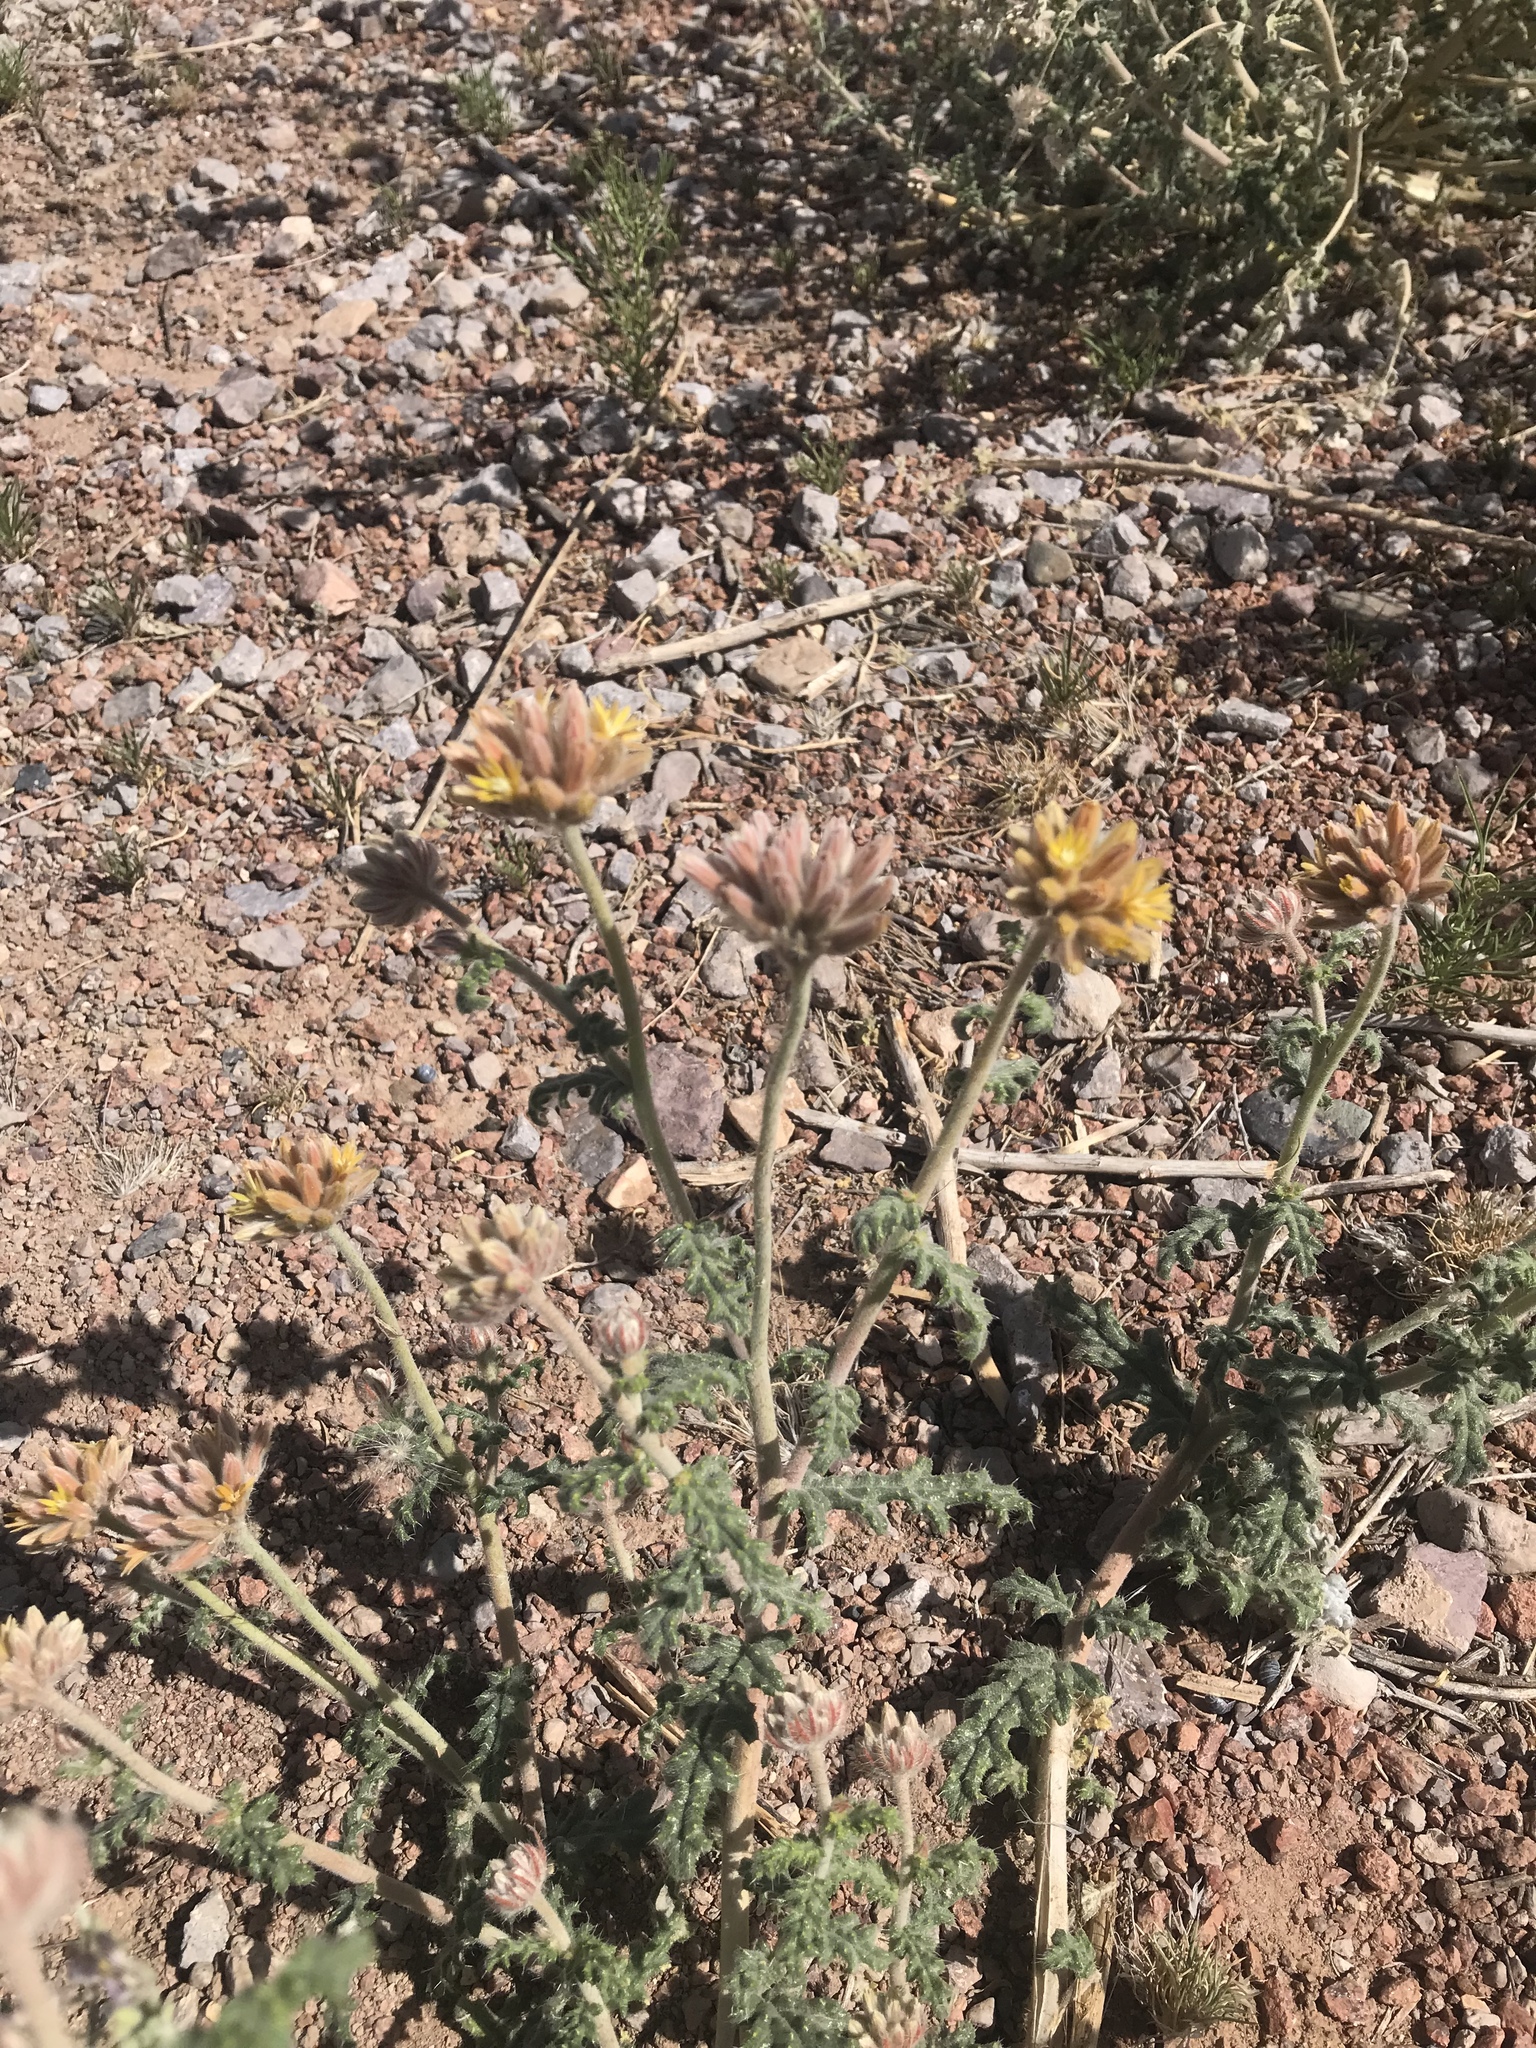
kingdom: Plantae
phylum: Tracheophyta
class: Magnoliopsida
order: Cornales
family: Loasaceae
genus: Cevallia
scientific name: Cevallia sinuata
